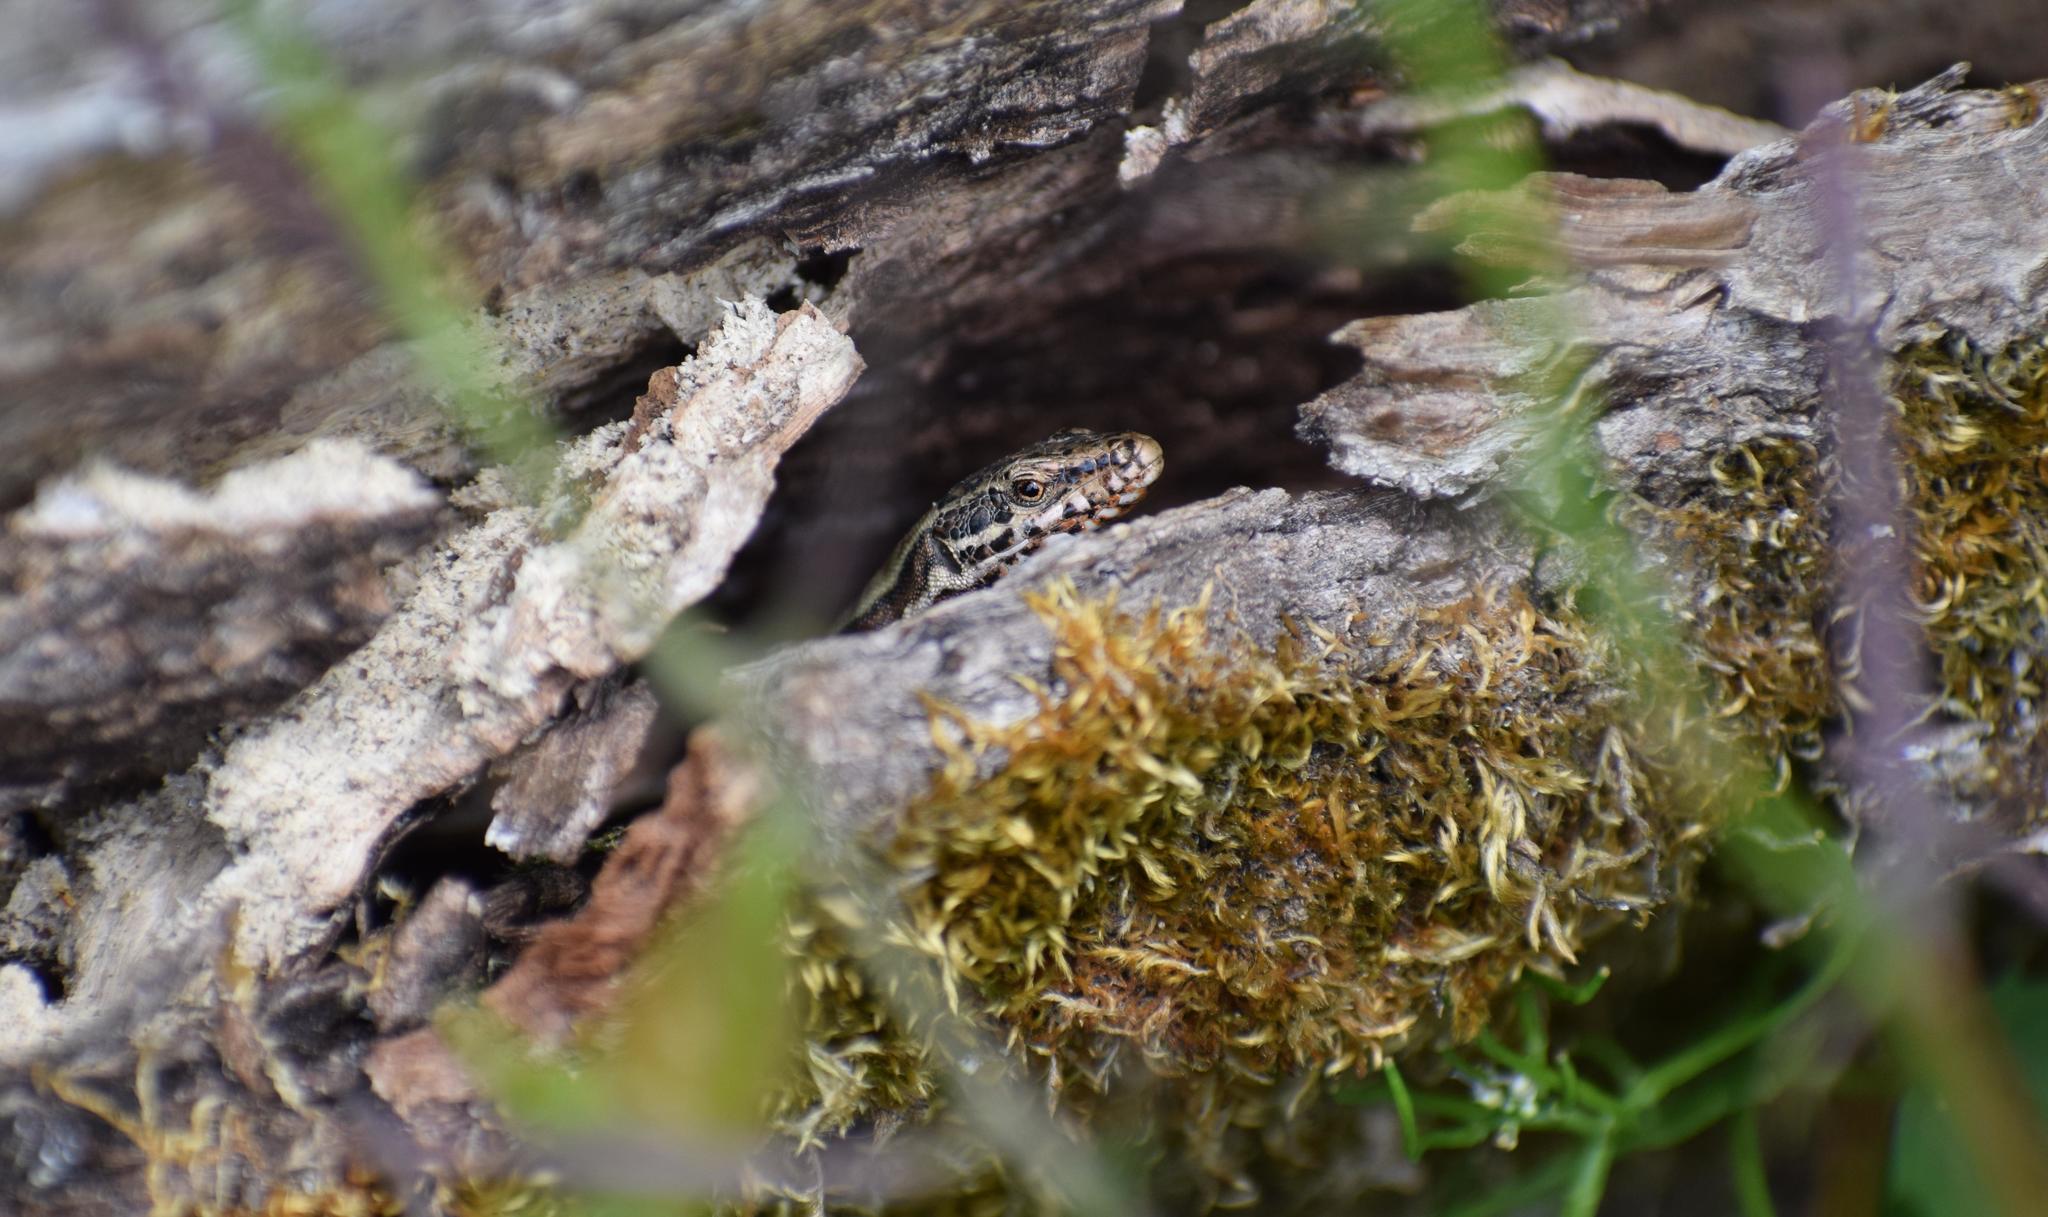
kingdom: Animalia
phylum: Chordata
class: Squamata
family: Lacertidae
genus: Podarcis
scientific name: Podarcis muralis
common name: Common wall lizard
